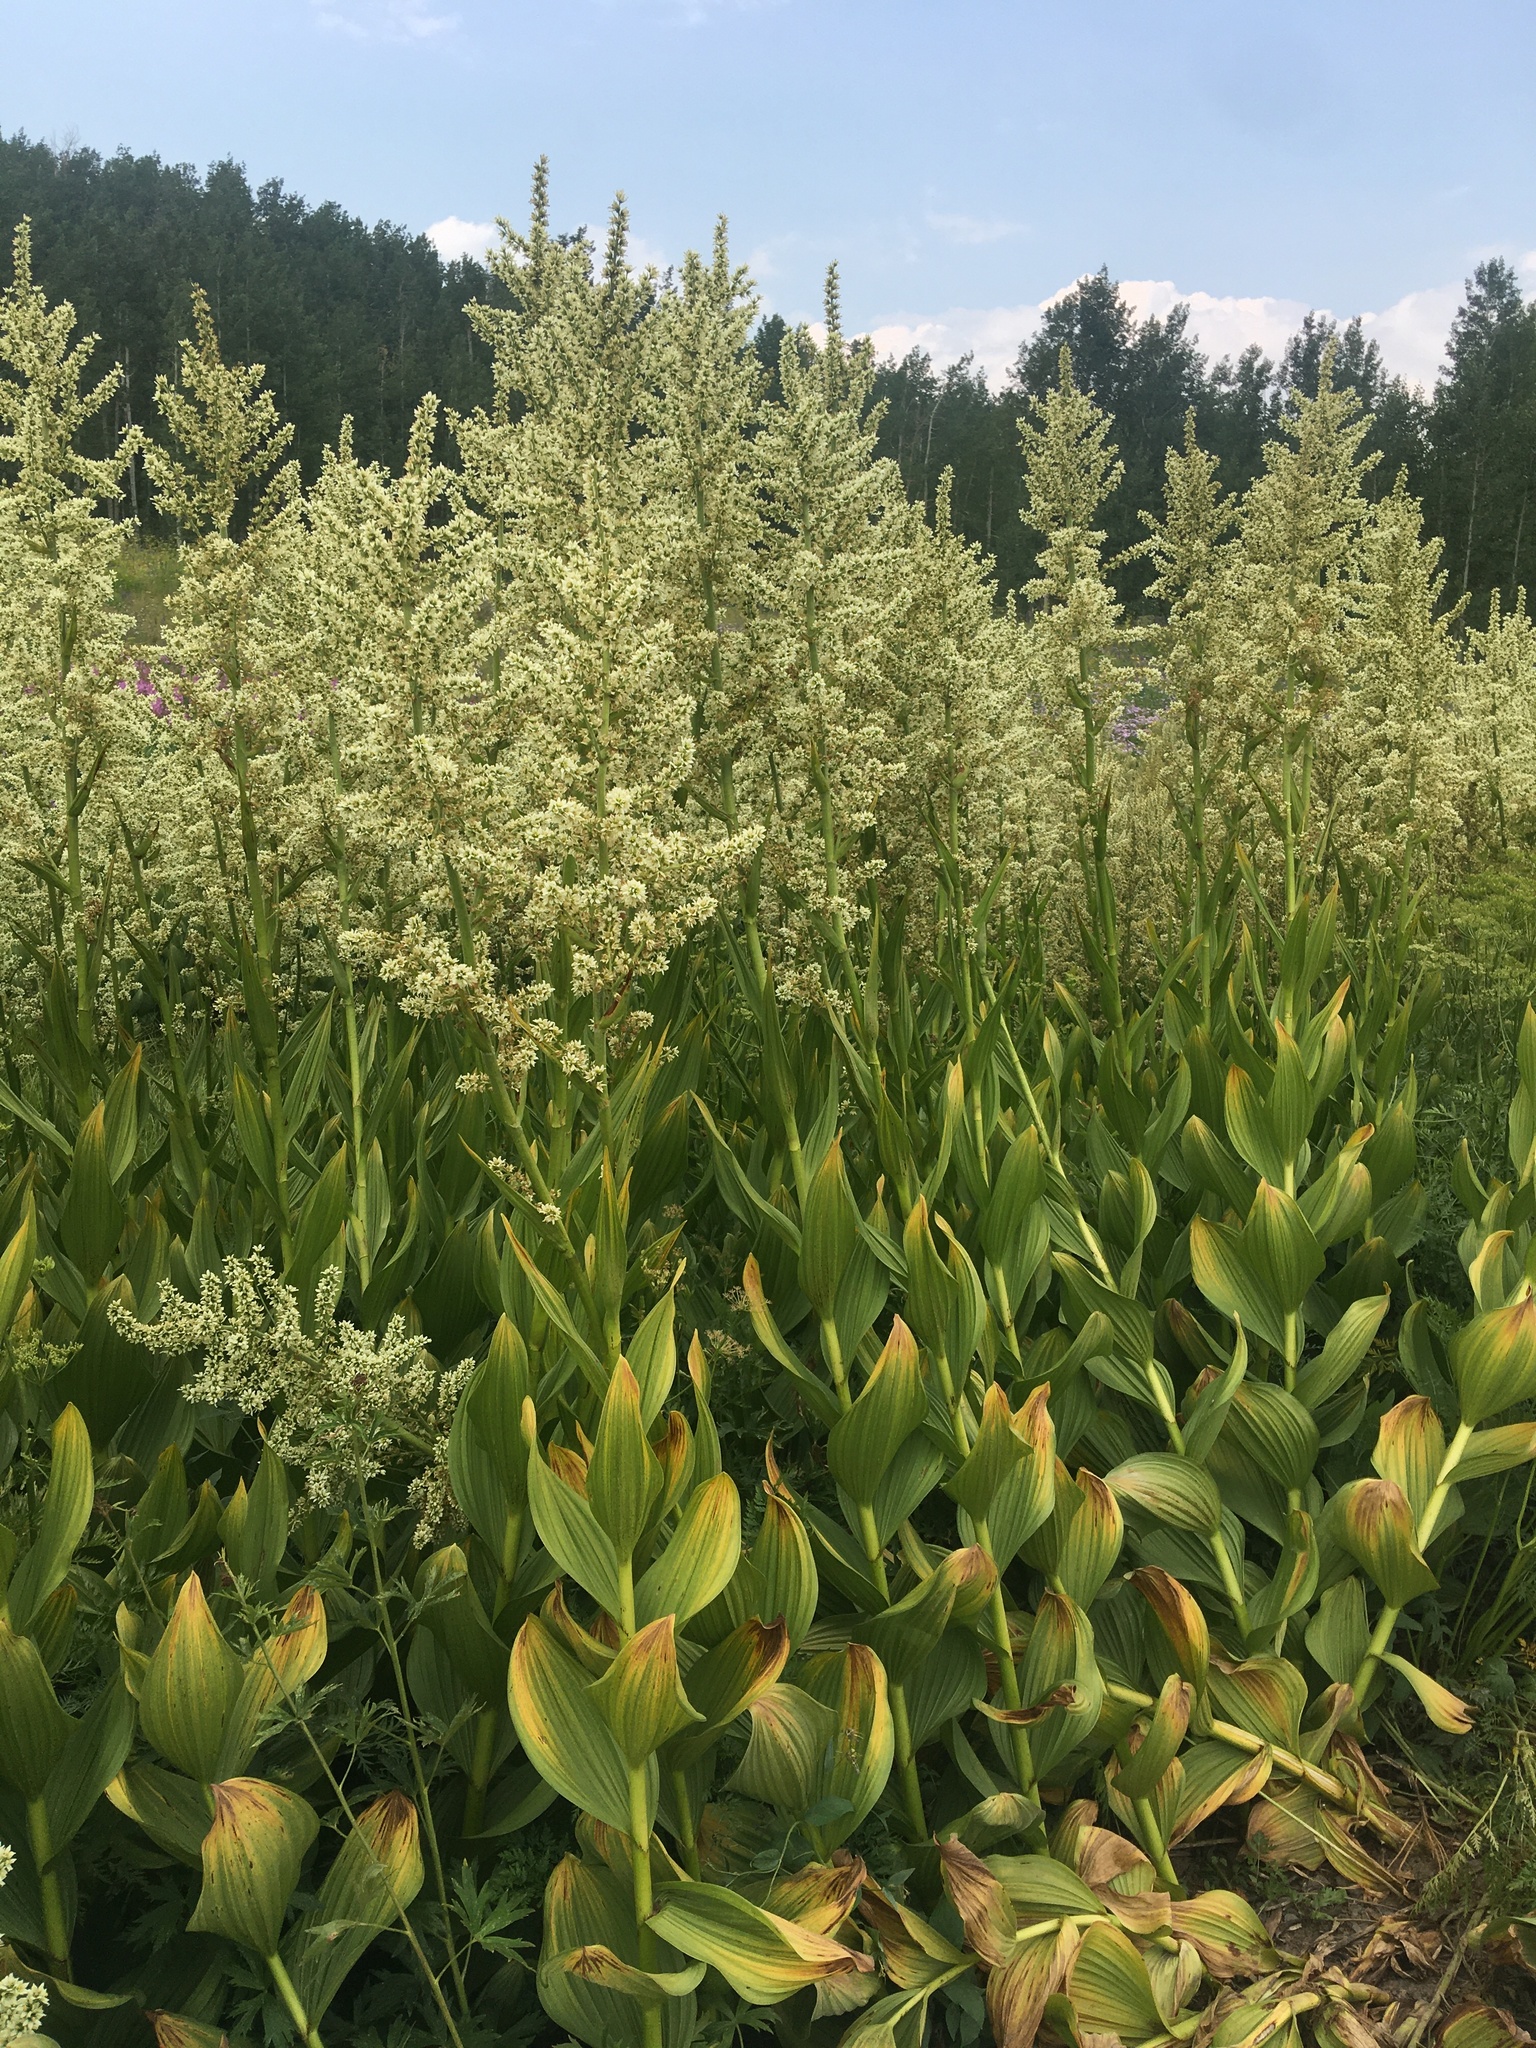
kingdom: Plantae
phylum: Tracheophyta
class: Liliopsida
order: Liliales
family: Melanthiaceae
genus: Veratrum
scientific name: Veratrum californicum
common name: California veratrum
